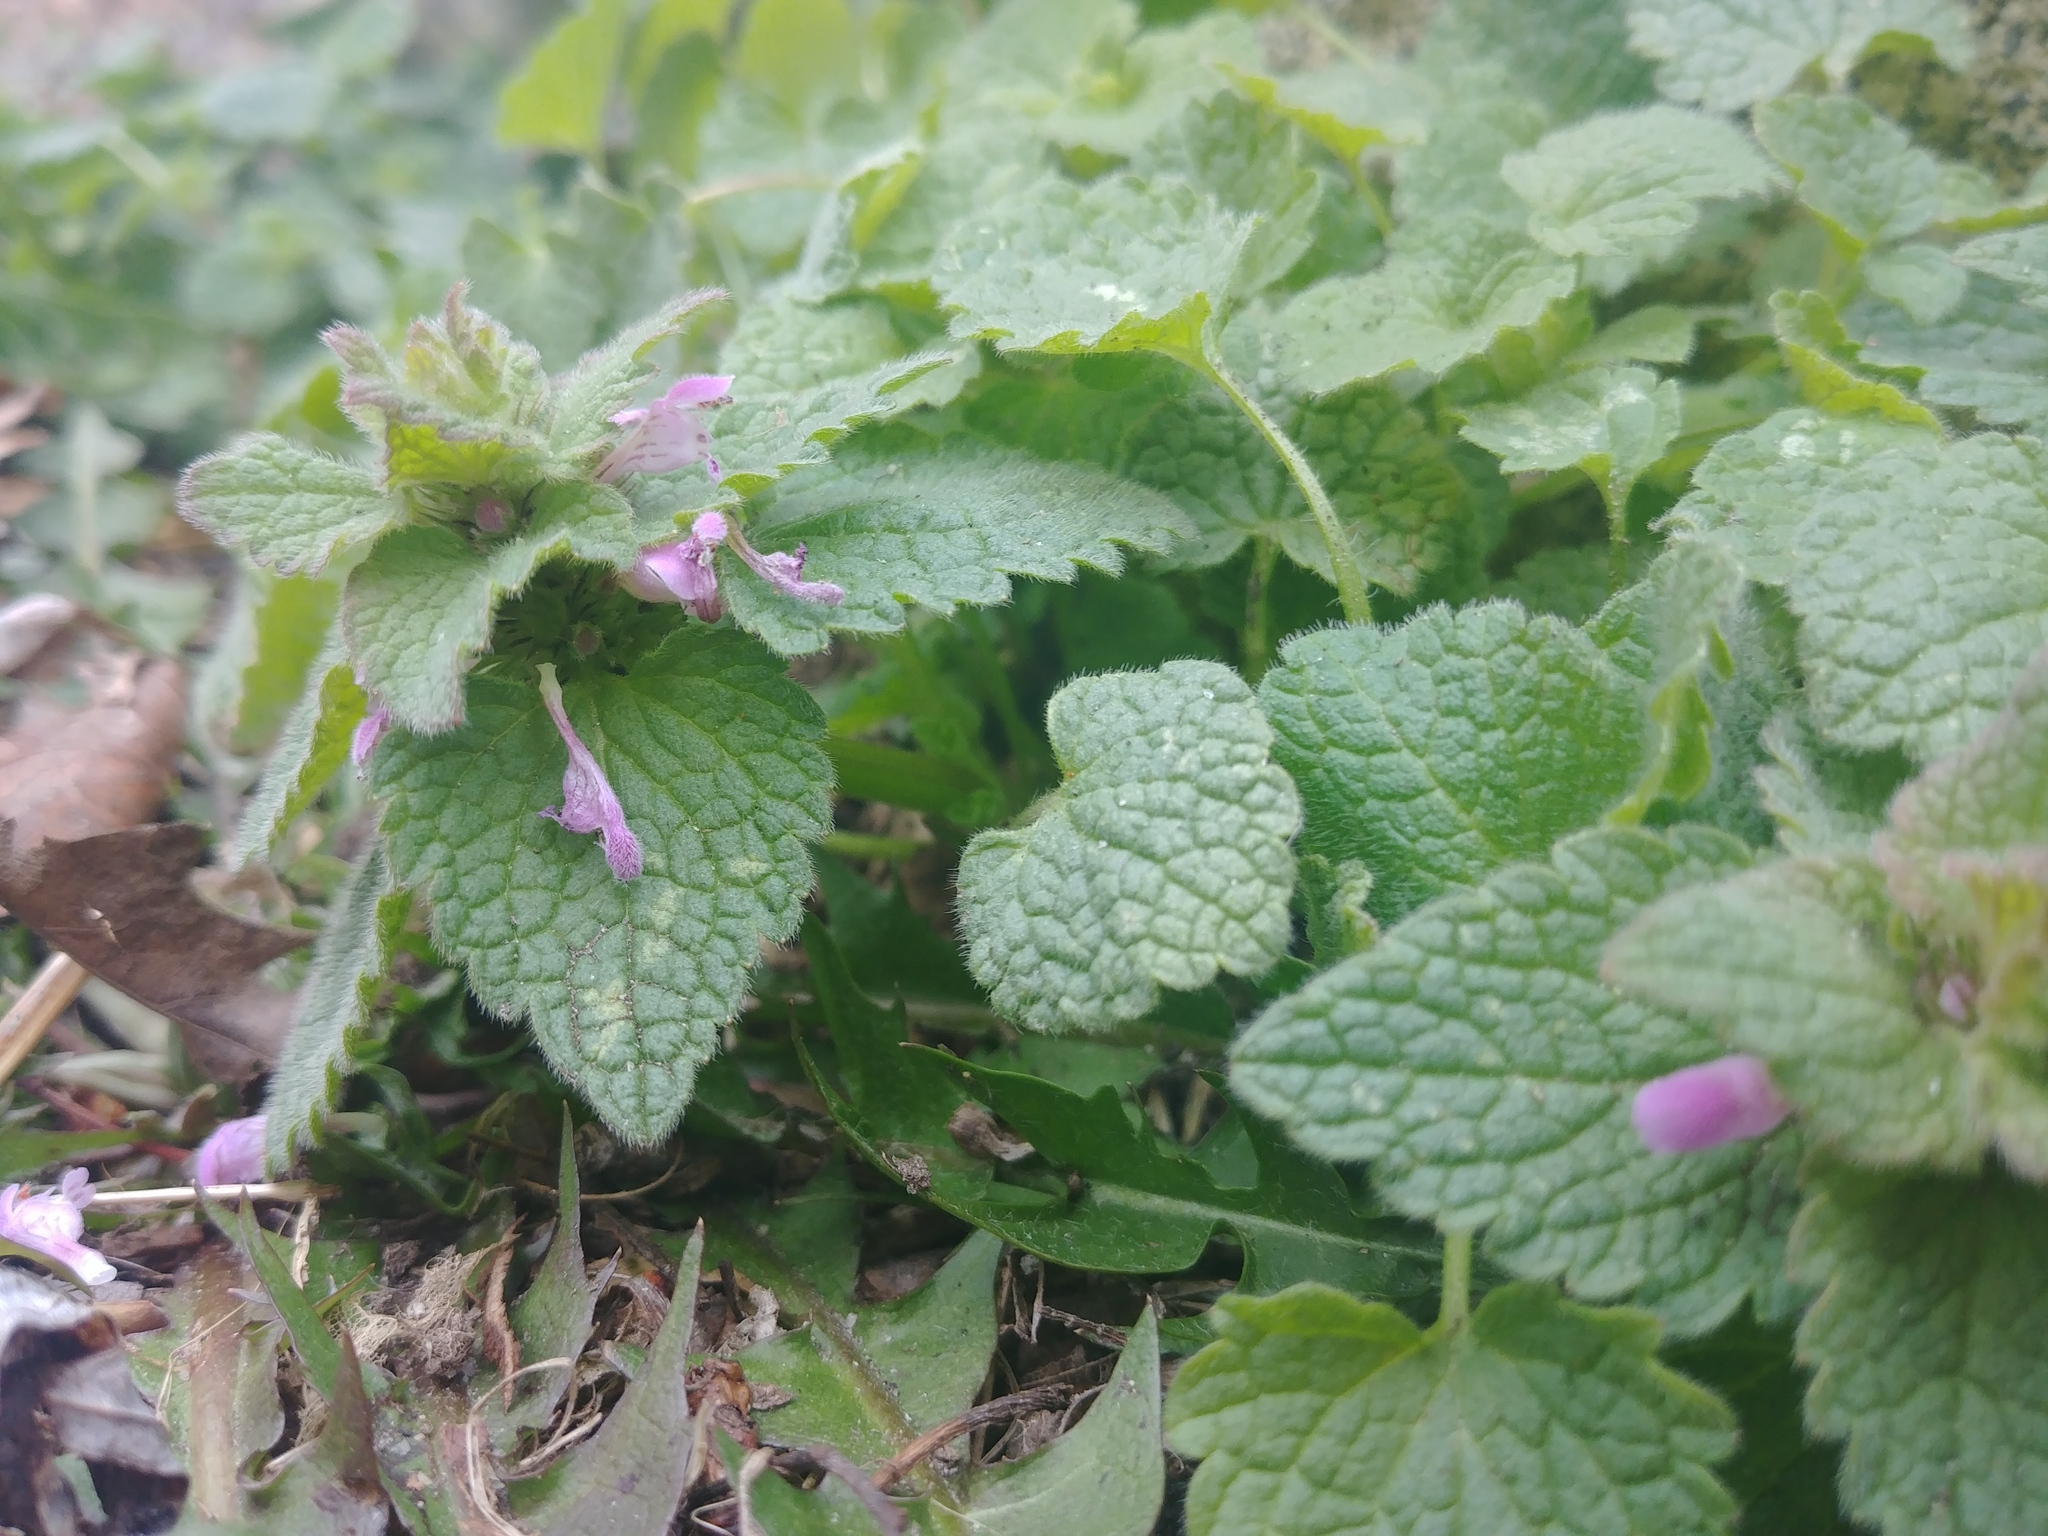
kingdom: Plantae
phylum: Tracheophyta
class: Magnoliopsida
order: Lamiales
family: Lamiaceae
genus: Lamium
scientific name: Lamium purpureum
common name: Red dead-nettle
